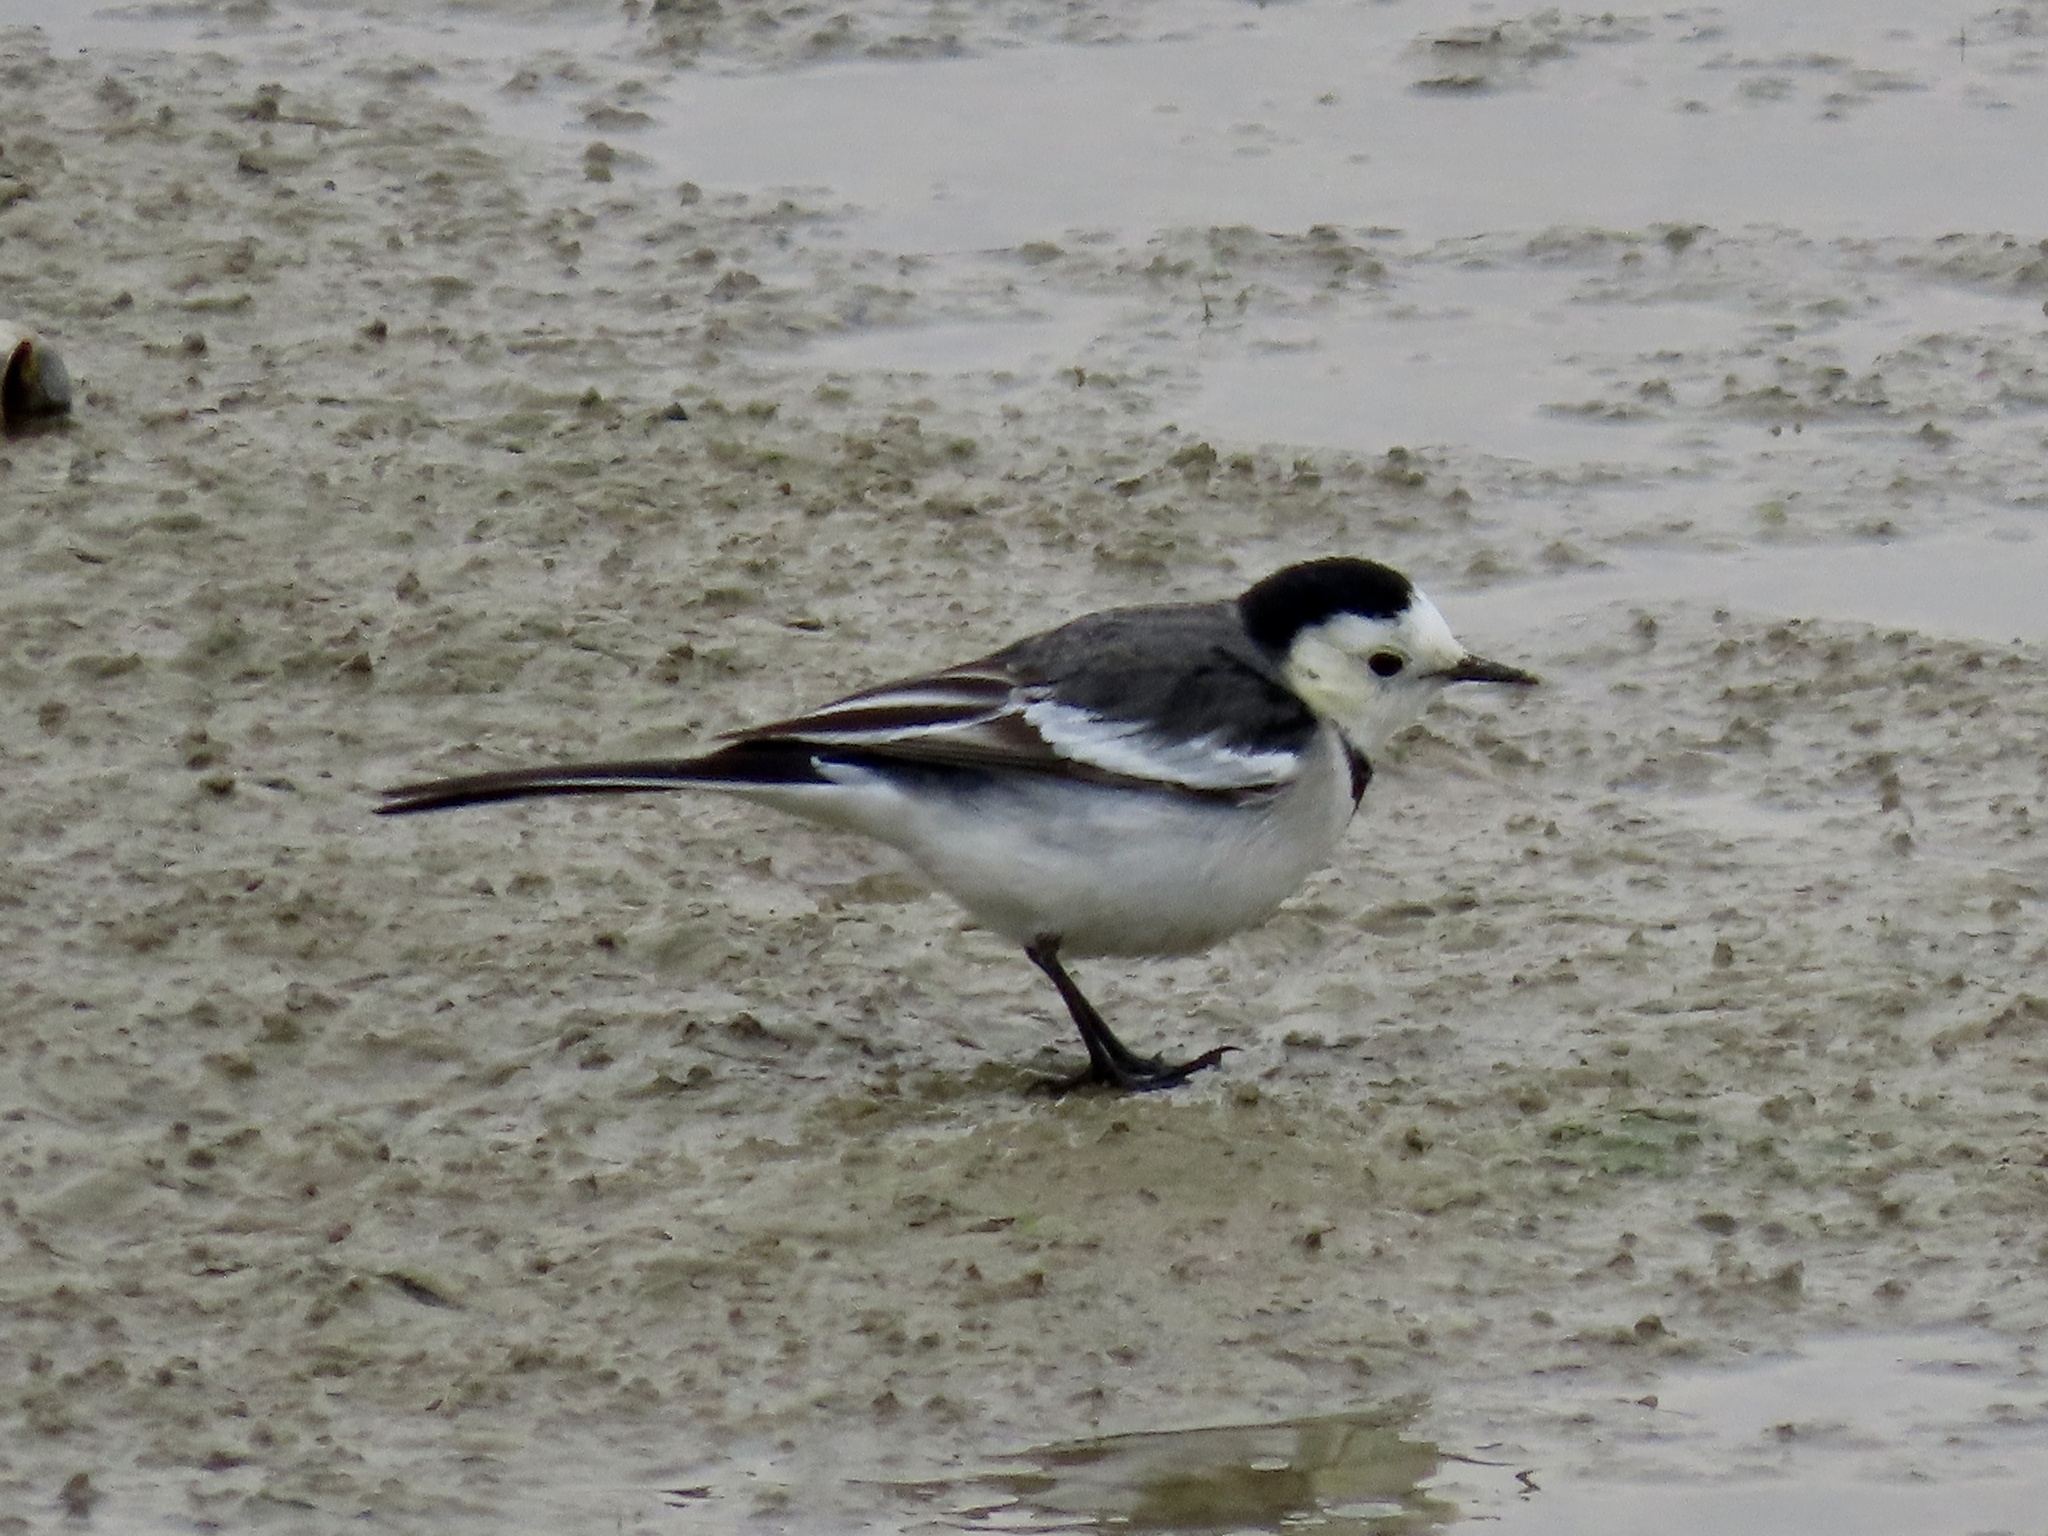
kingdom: Animalia
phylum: Chordata
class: Aves
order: Passeriformes
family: Motacillidae
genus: Motacilla
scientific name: Motacilla alba
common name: White wagtail
